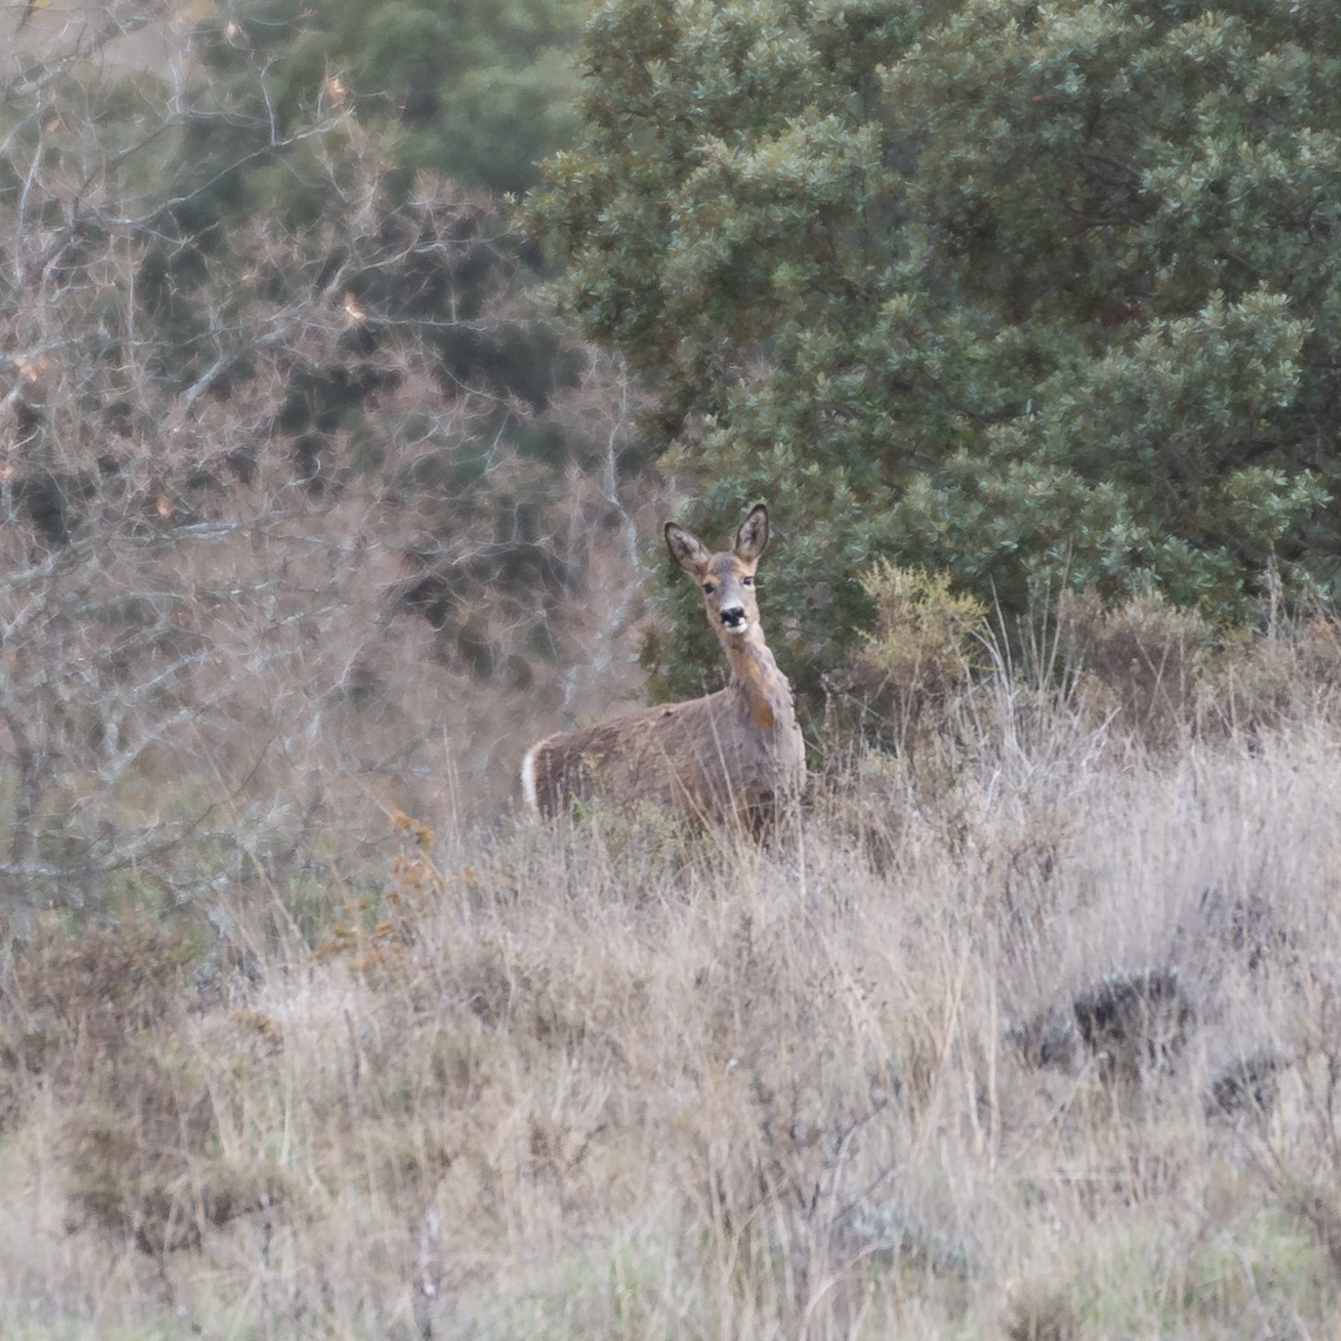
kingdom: Animalia
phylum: Chordata
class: Mammalia
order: Artiodactyla
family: Cervidae
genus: Capreolus
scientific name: Capreolus capreolus
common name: Western roe deer
